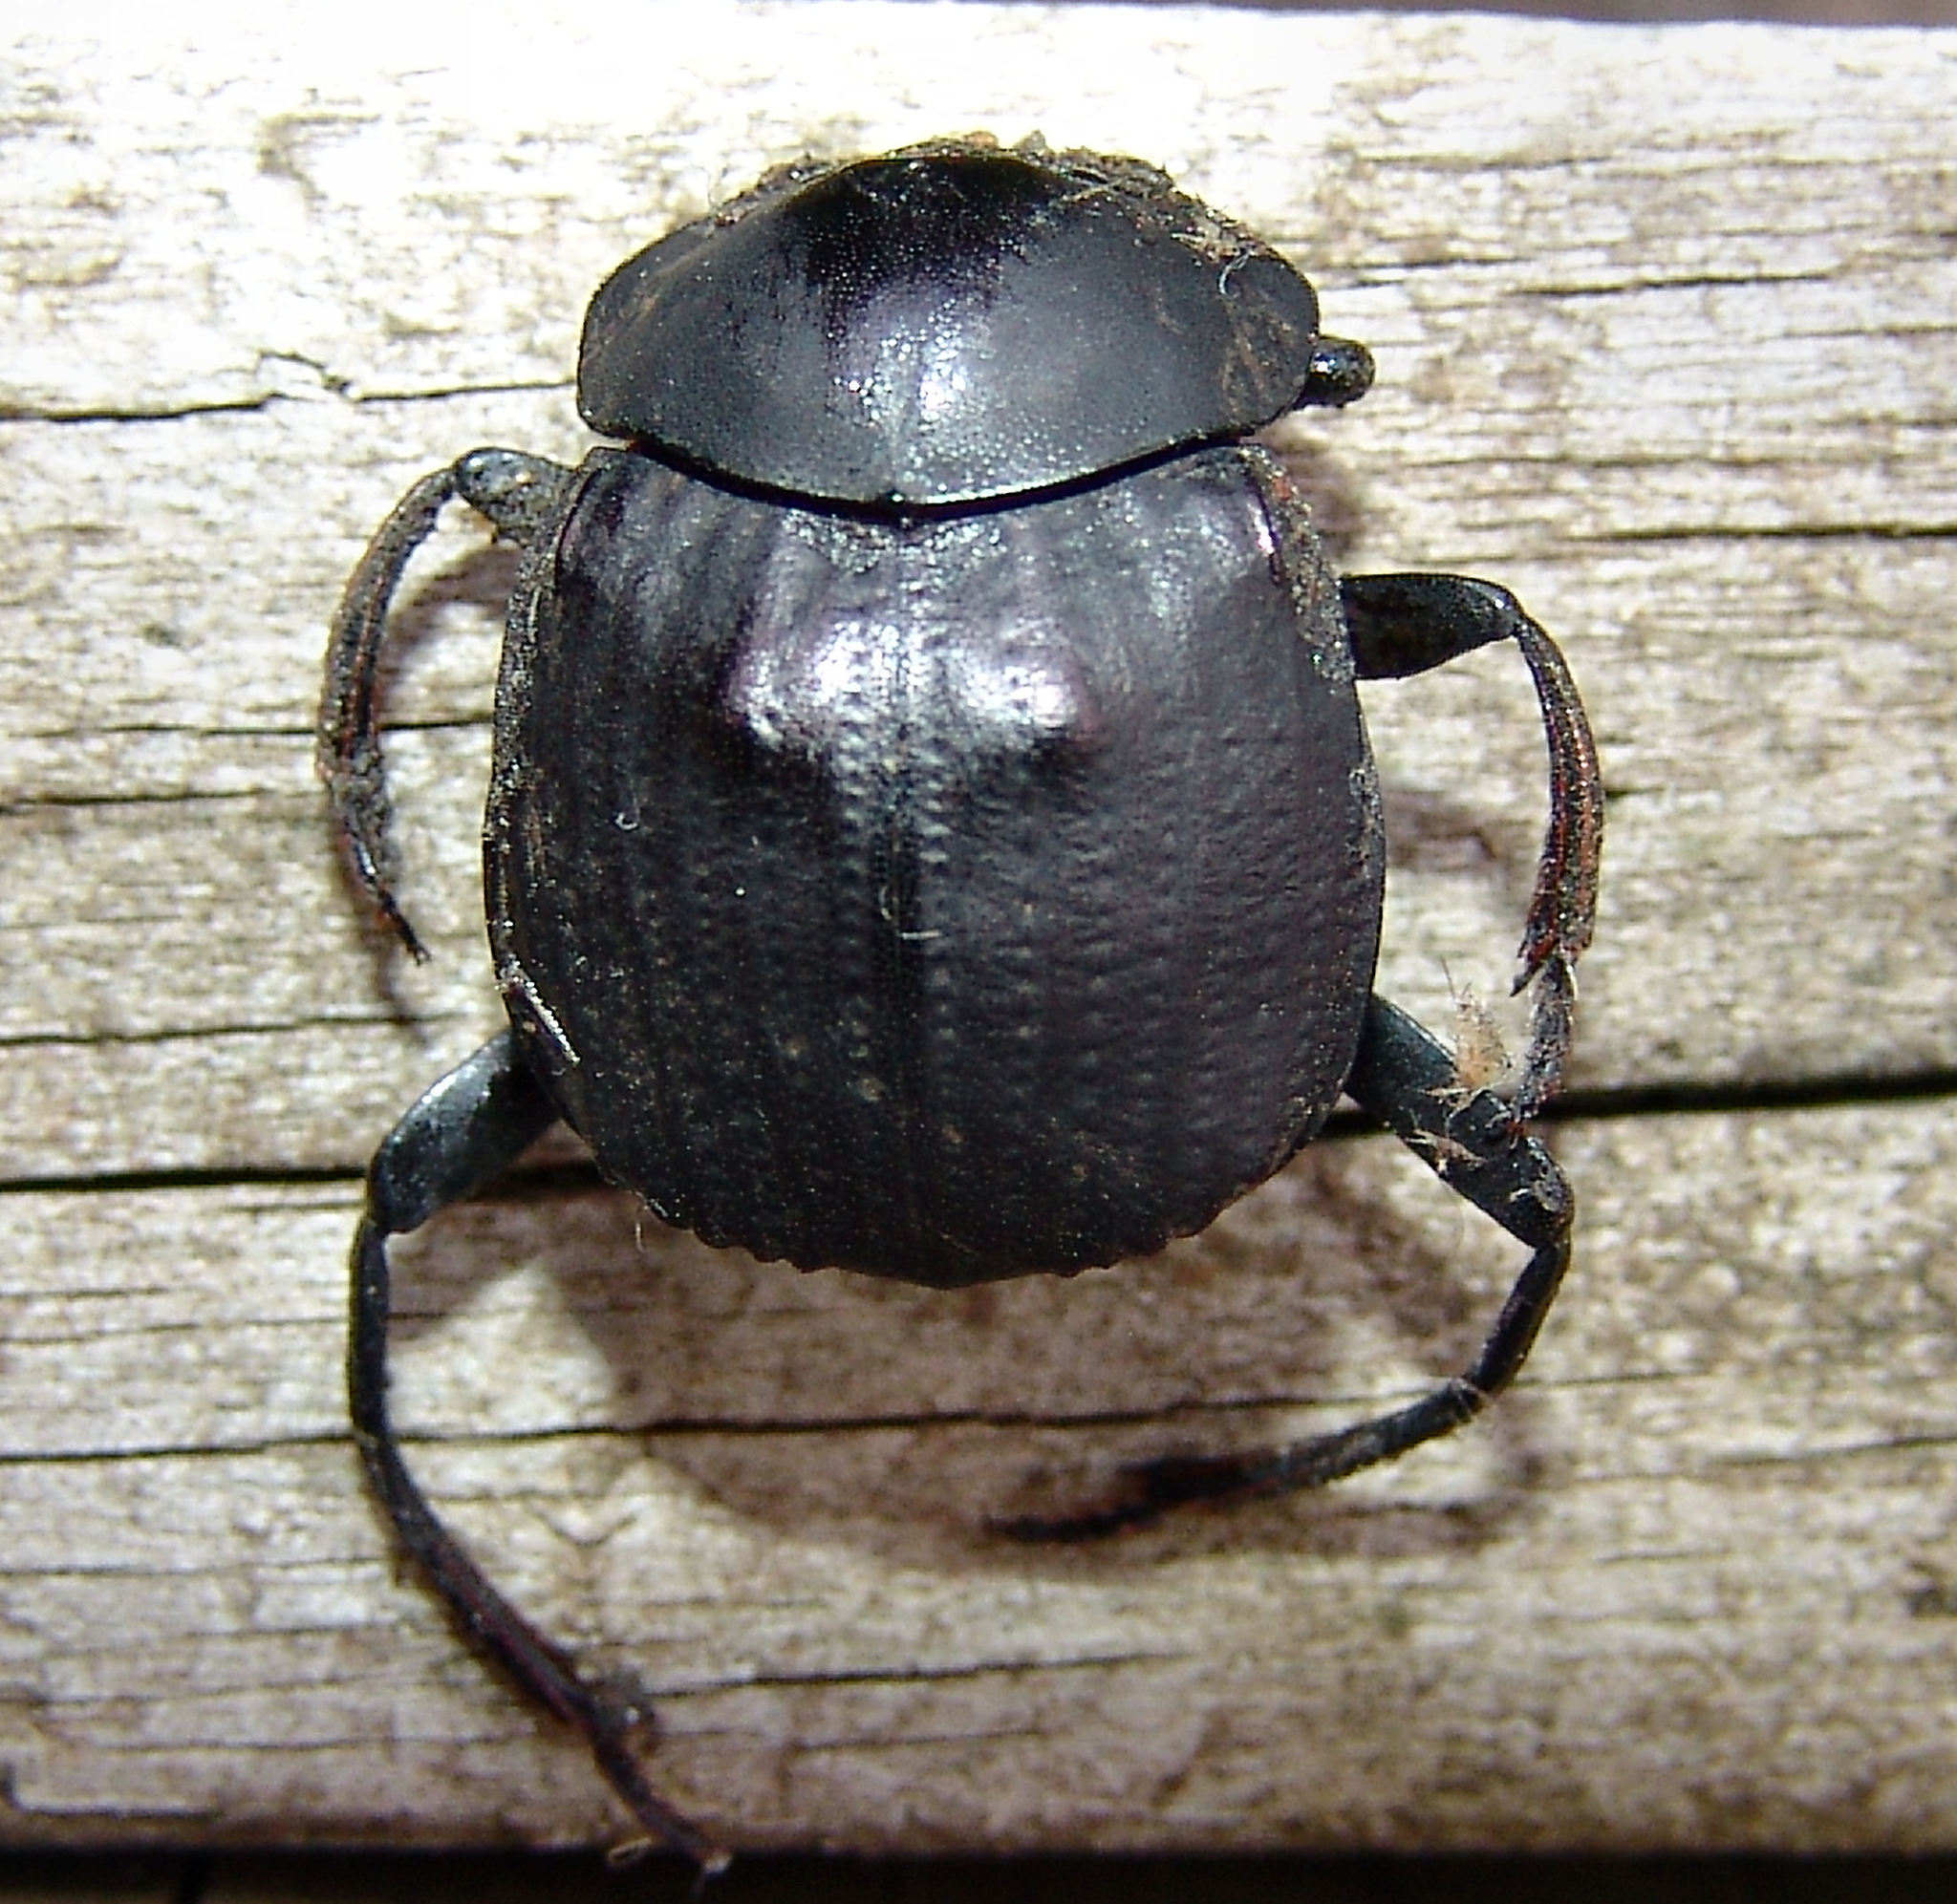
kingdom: Animalia
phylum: Arthropoda
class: Insecta
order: Coleoptera
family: Scarabaeidae
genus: Deltochilum
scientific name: Deltochilum gibbosum
